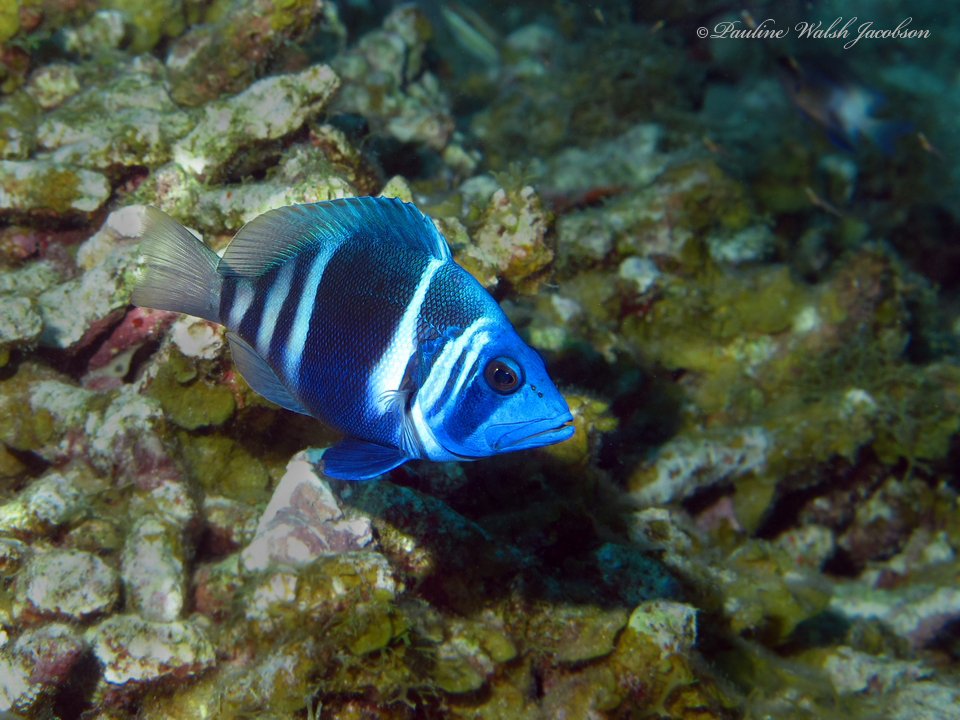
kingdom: Animalia
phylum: Chordata
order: Perciformes
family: Serranidae
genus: Hypoplectrus
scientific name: Hypoplectrus indigo
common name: Indigo hamlet
